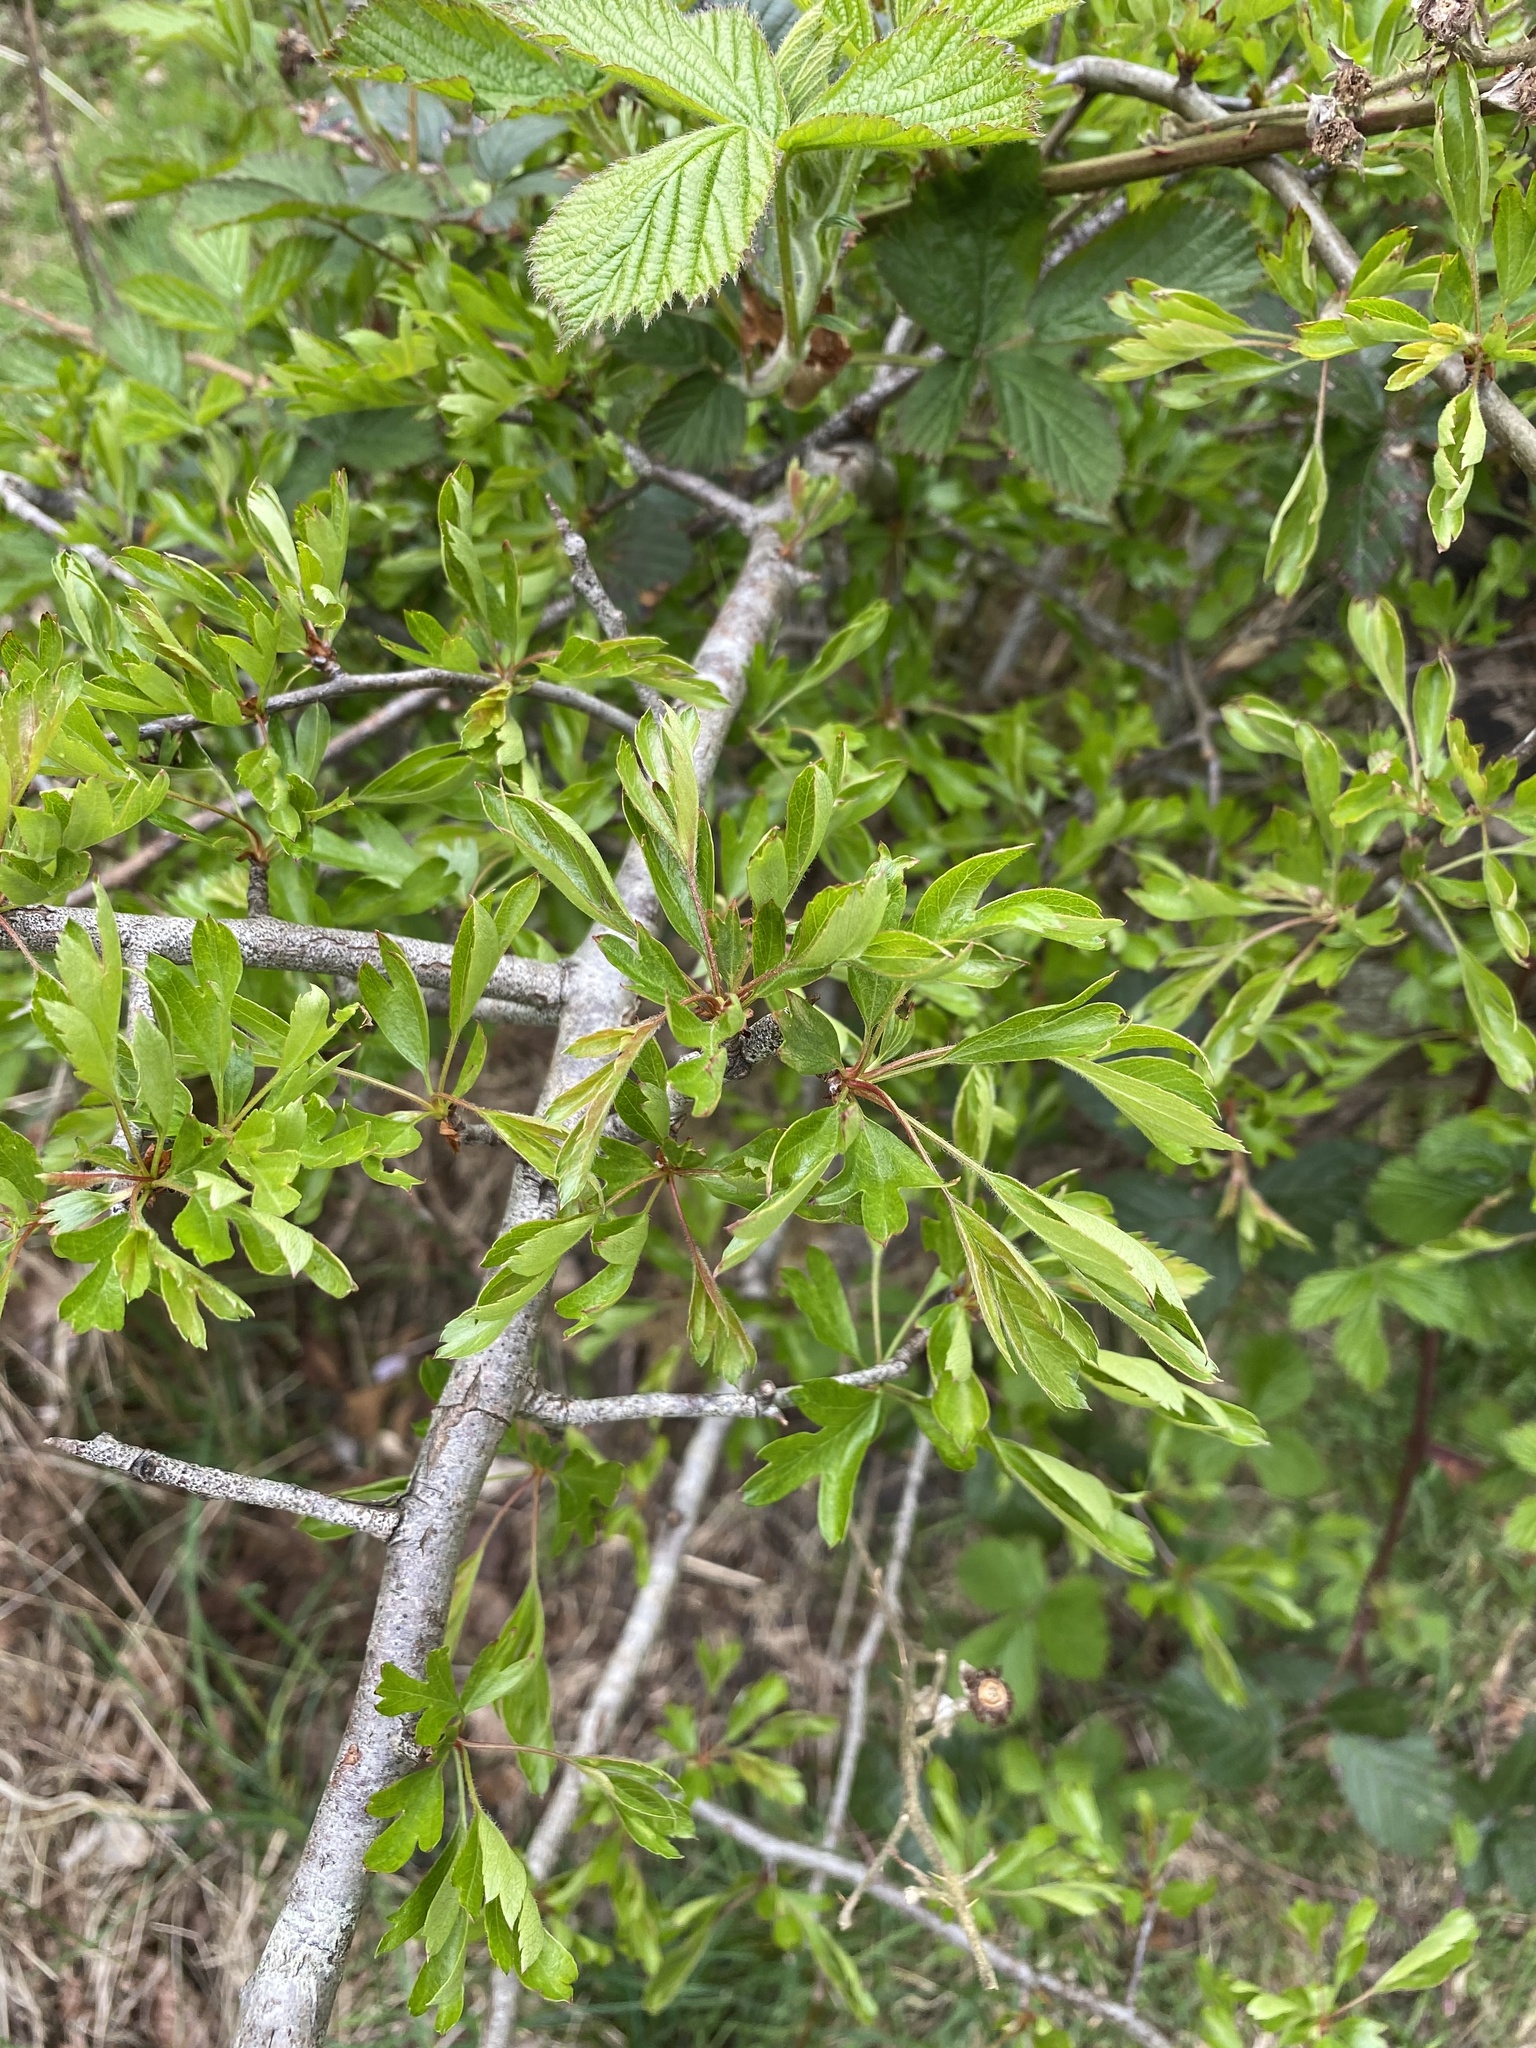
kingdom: Plantae
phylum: Tracheophyta
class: Magnoliopsida
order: Rosales
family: Rosaceae
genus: Crataegus
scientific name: Crataegus monogyna
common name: Hawthorn
